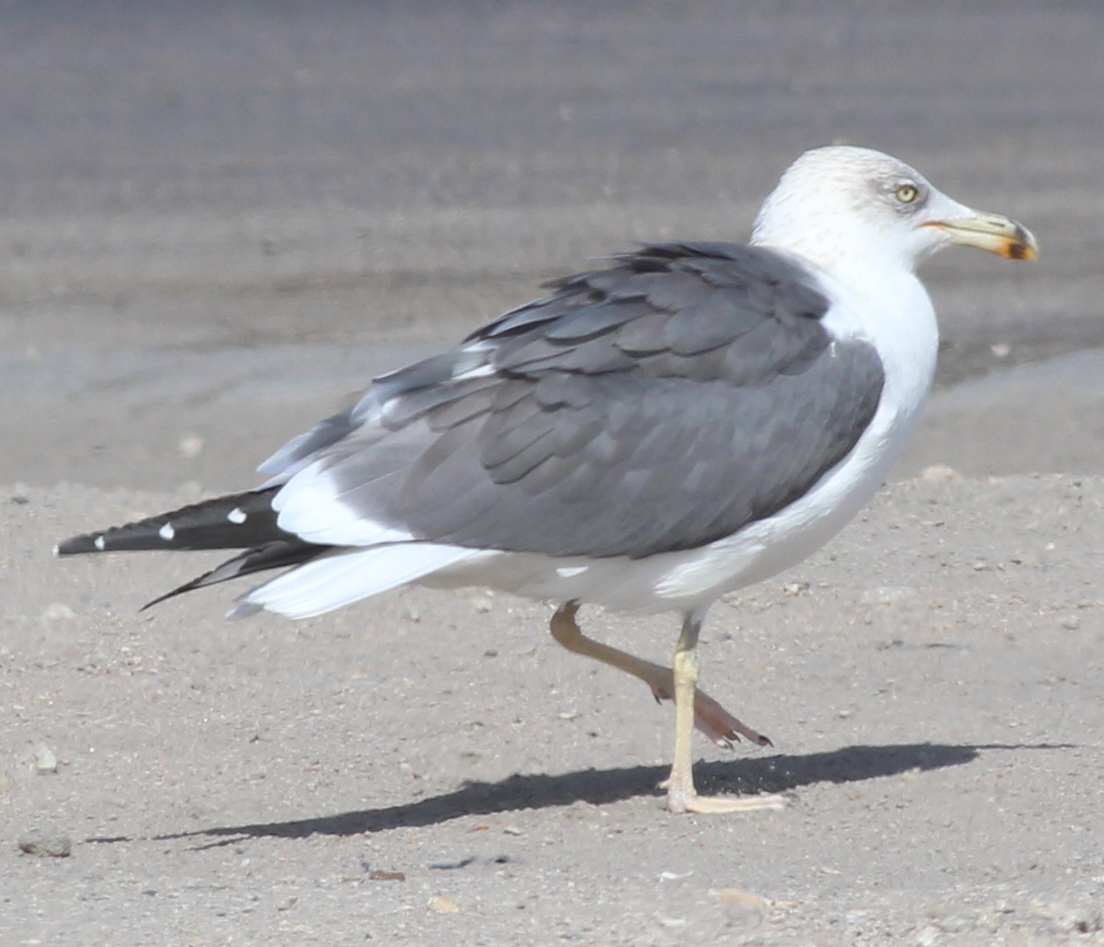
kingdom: Animalia
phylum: Chordata
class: Aves
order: Charadriiformes
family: Laridae
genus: Larus
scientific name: Larus fuscus
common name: Lesser black-backed gull
